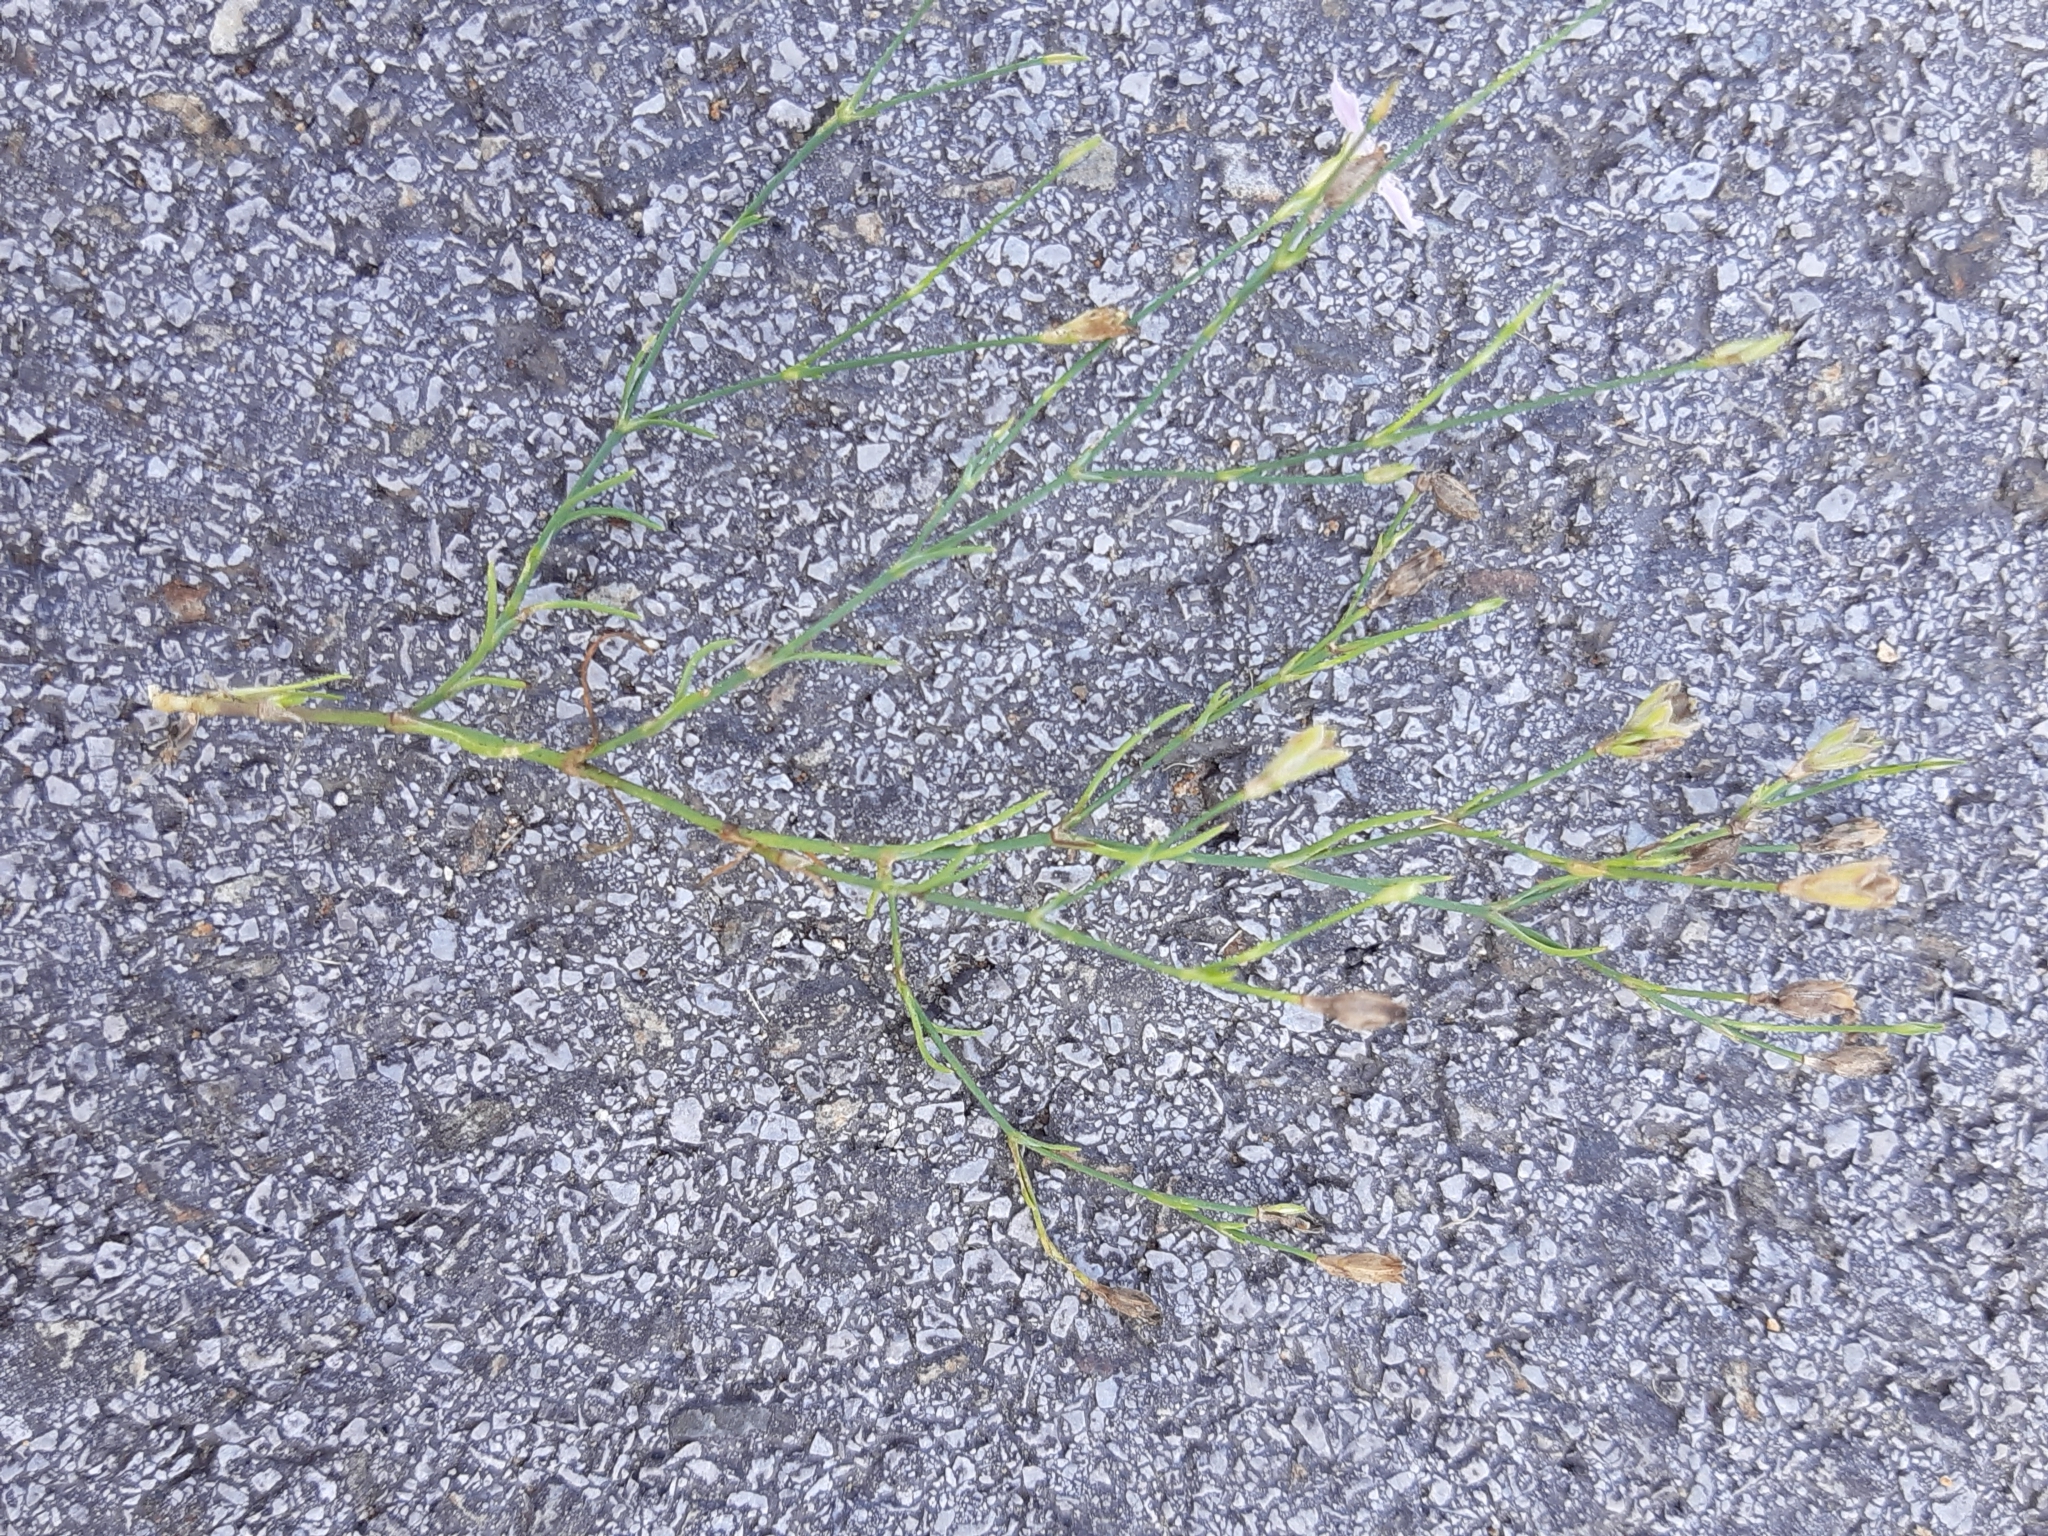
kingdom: Plantae
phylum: Tracheophyta
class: Magnoliopsida
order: Caryophyllales
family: Caryophyllaceae
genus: Petrorhagia
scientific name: Petrorhagia saxifraga
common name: Tunicflower
